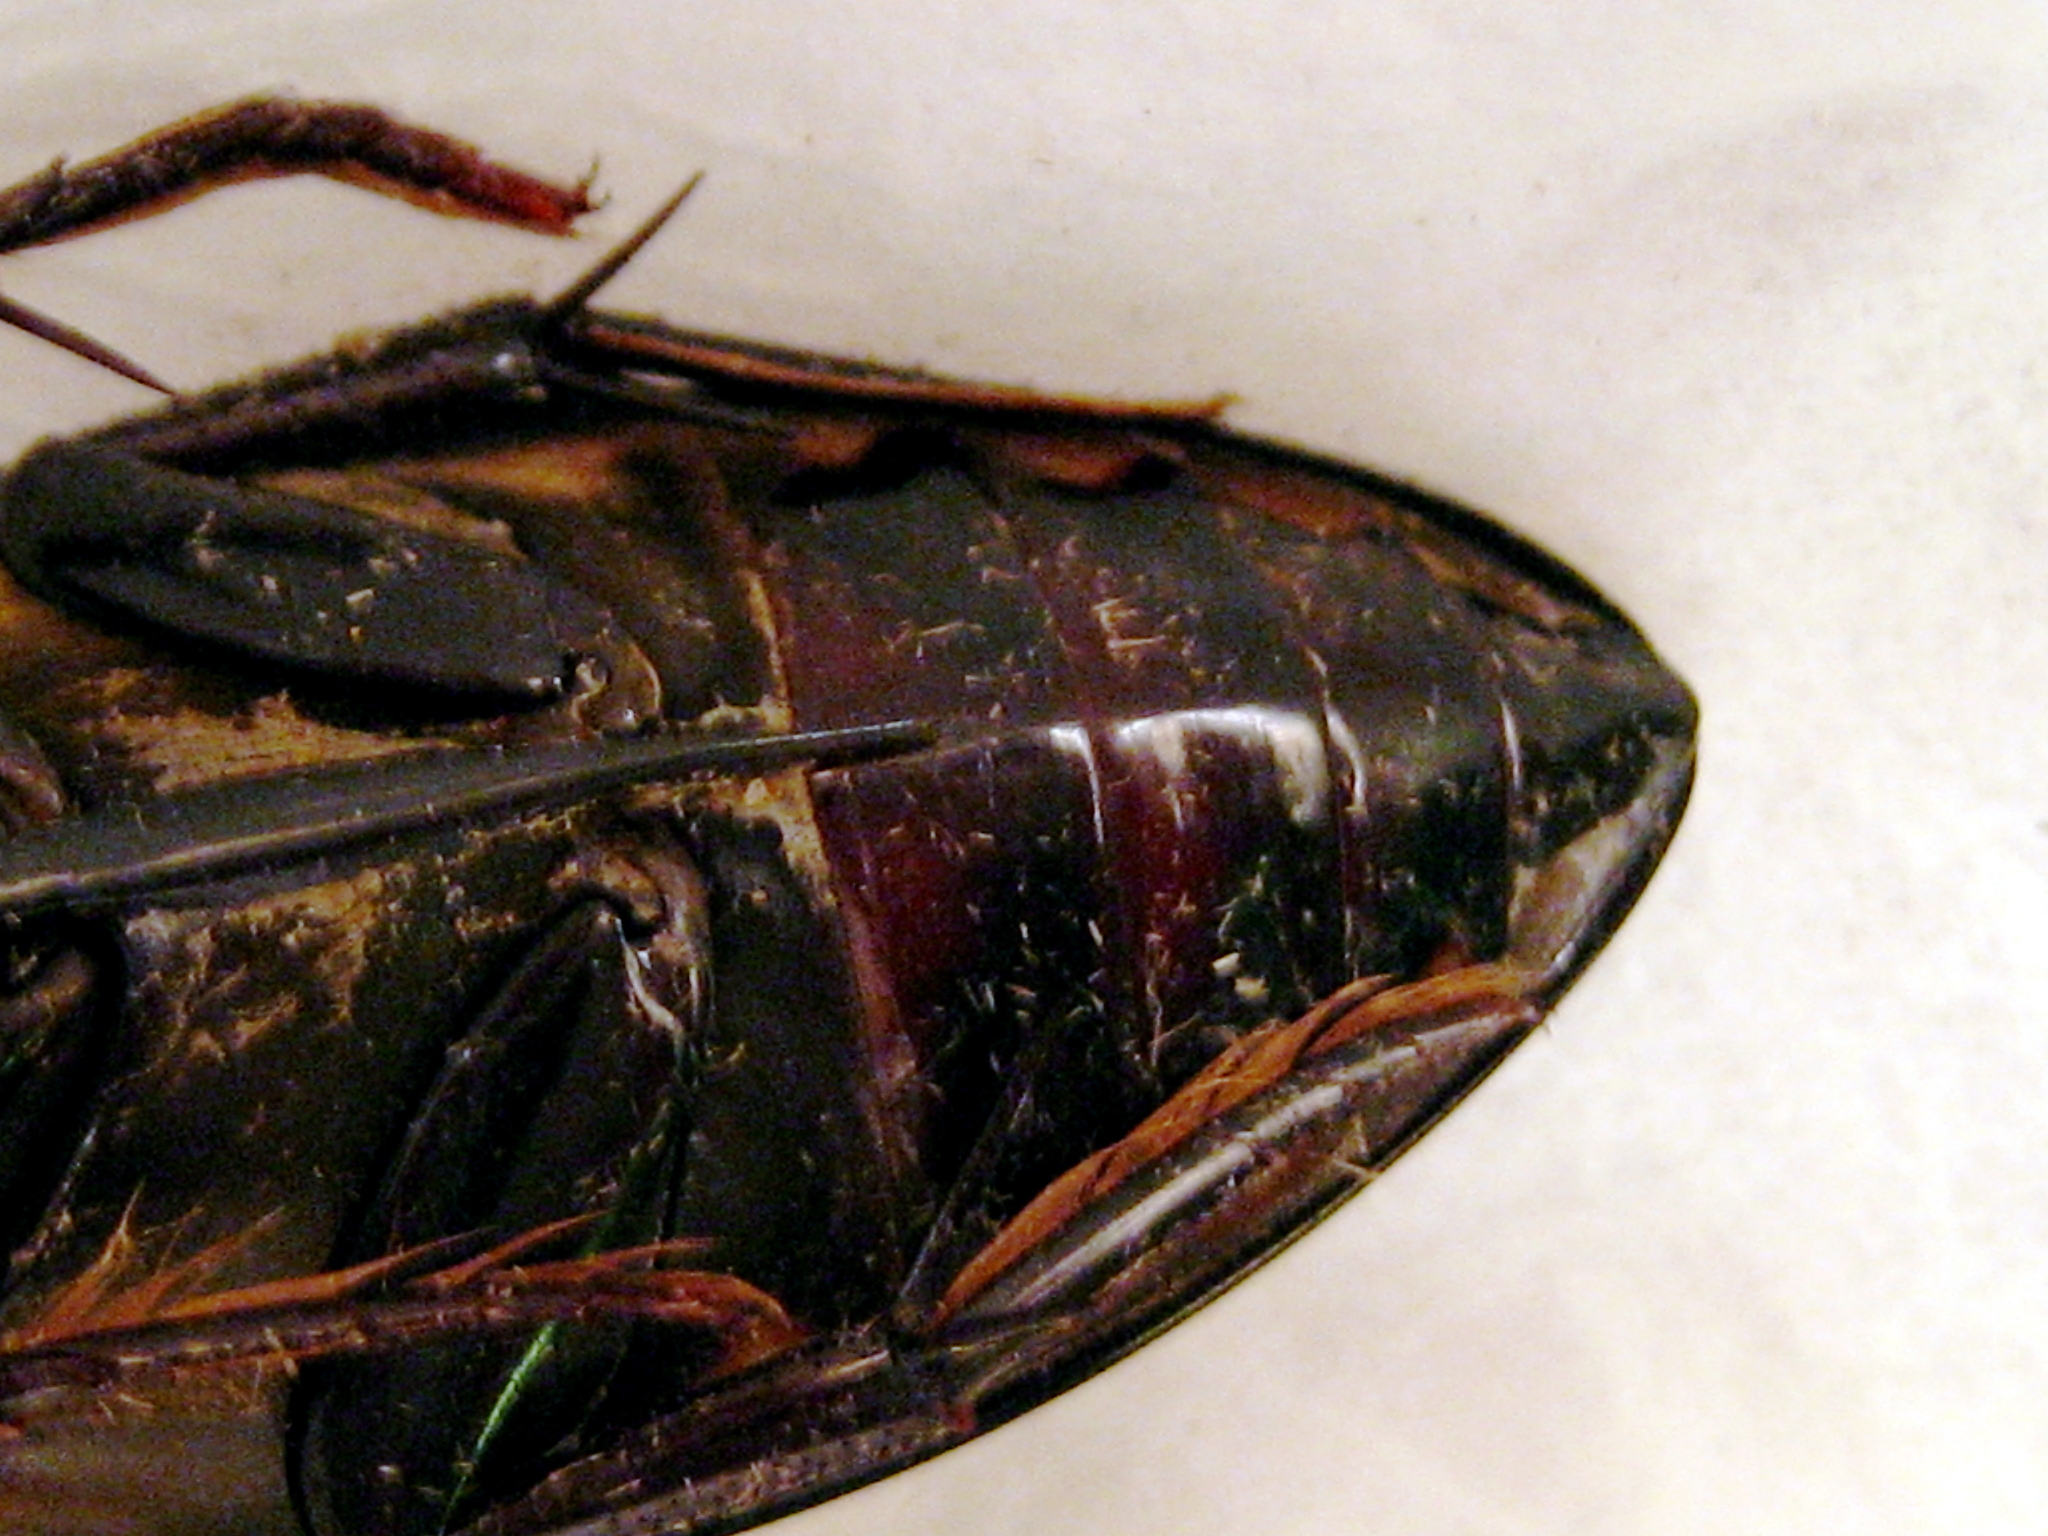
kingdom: Animalia
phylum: Arthropoda
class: Insecta
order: Coleoptera
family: Hydrophilidae
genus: Hydrophilus
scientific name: Hydrophilus triangularis
